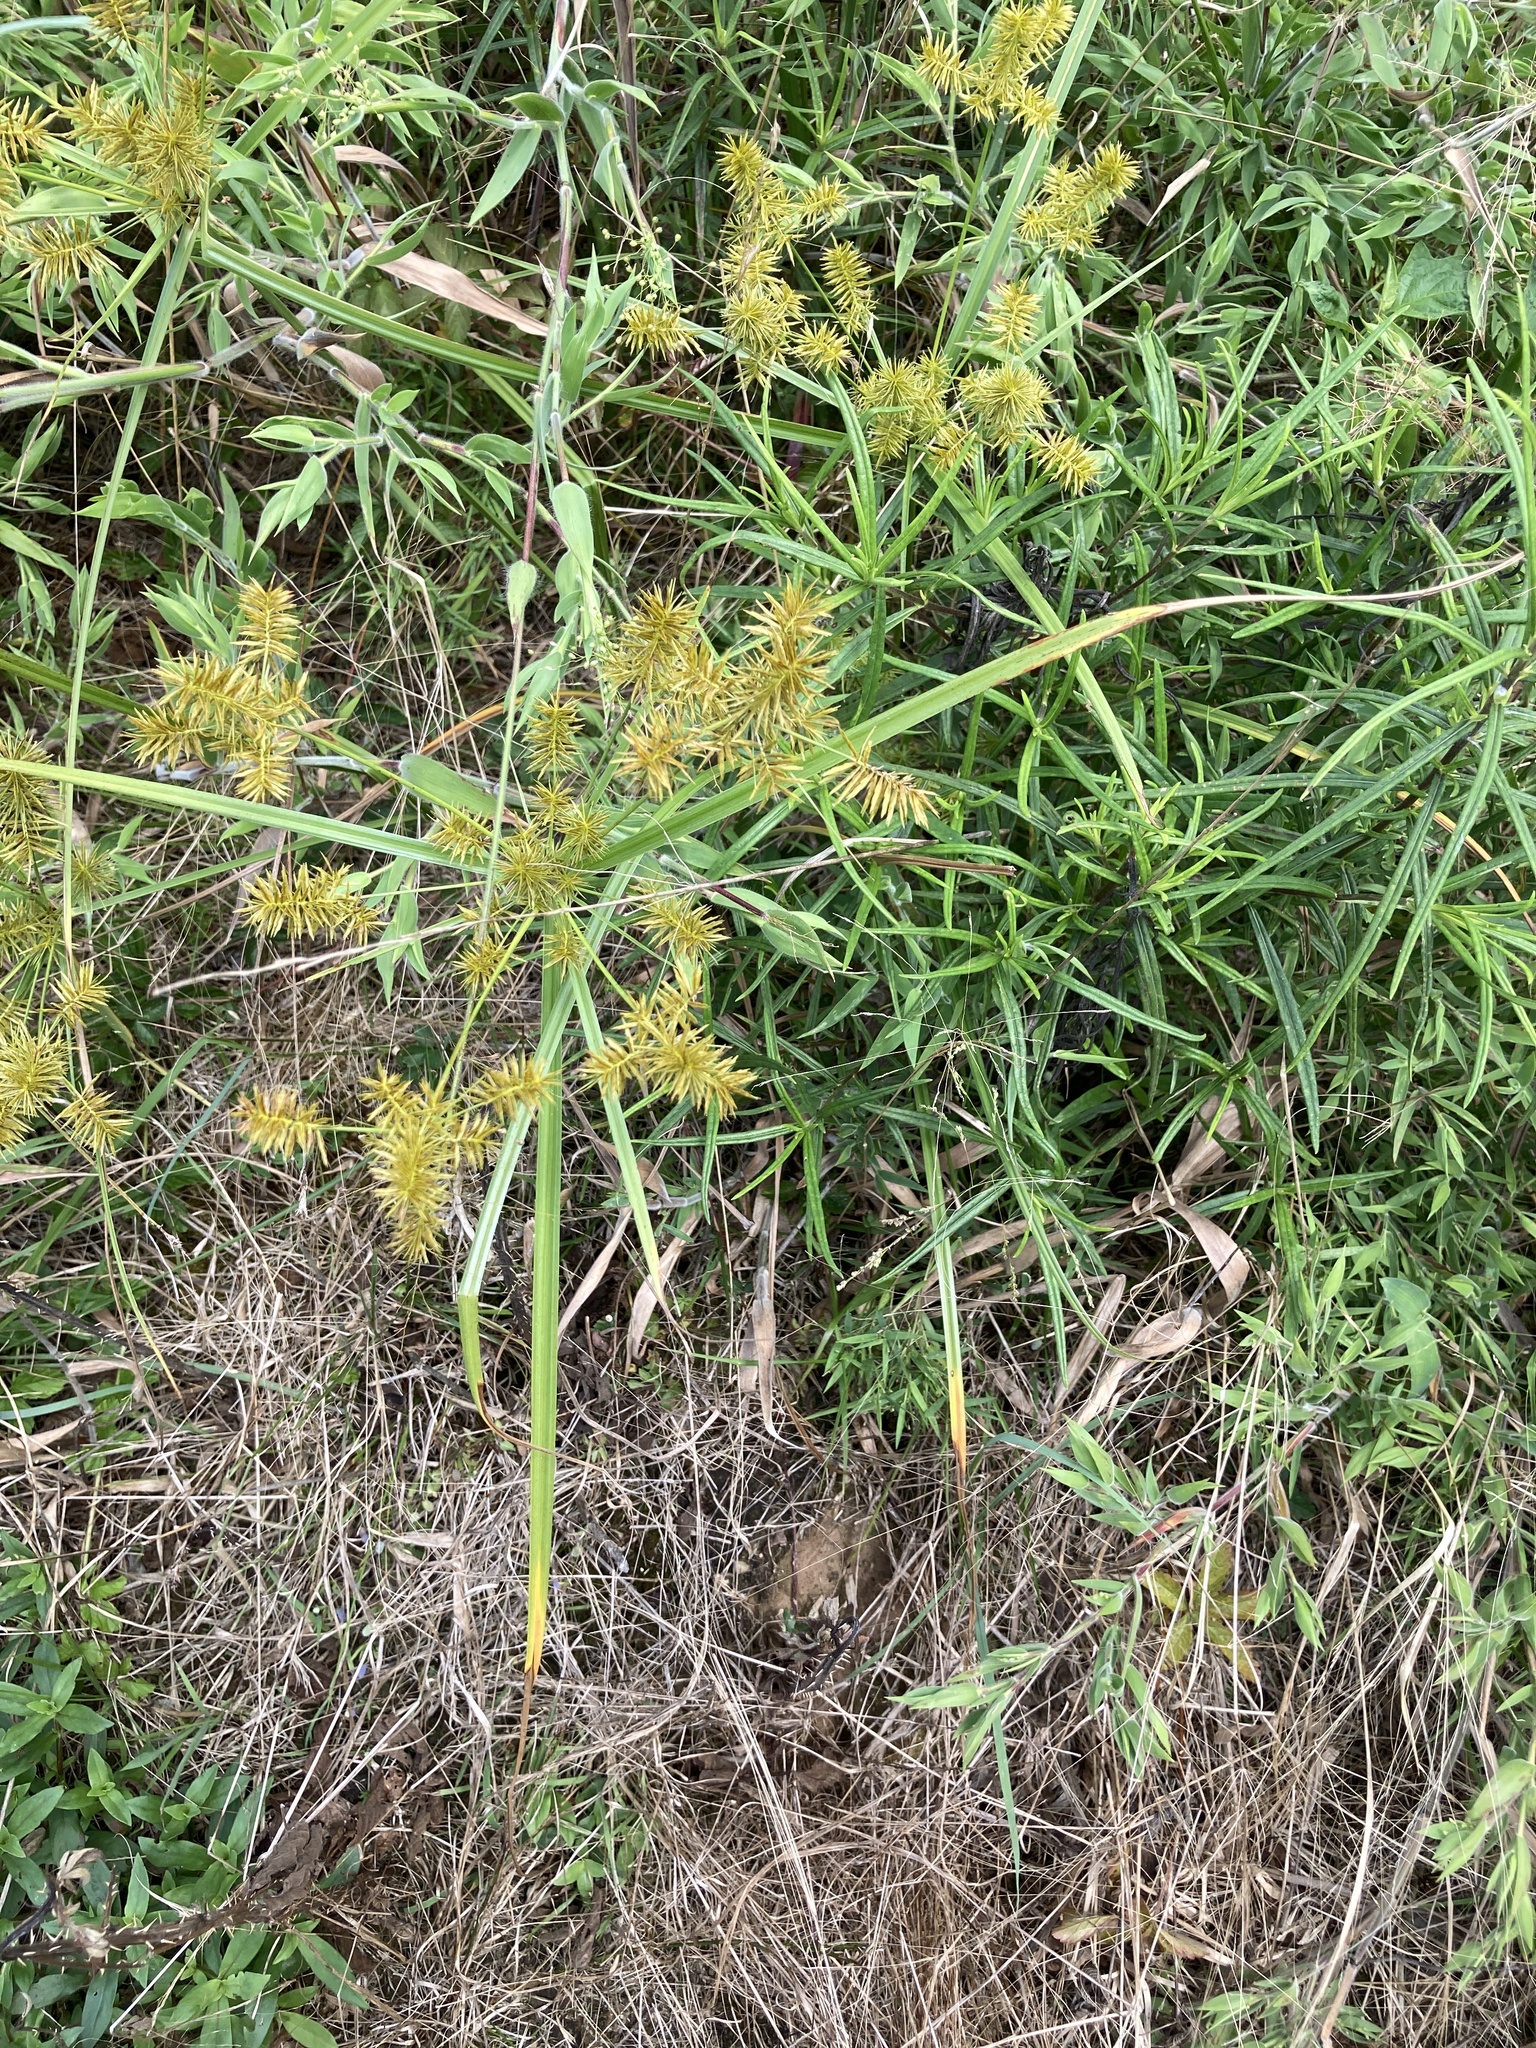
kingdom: Plantae
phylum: Tracheophyta
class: Liliopsida
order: Poales
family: Cyperaceae
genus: Cyperus
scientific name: Cyperus strigosus
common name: False nutsedge
